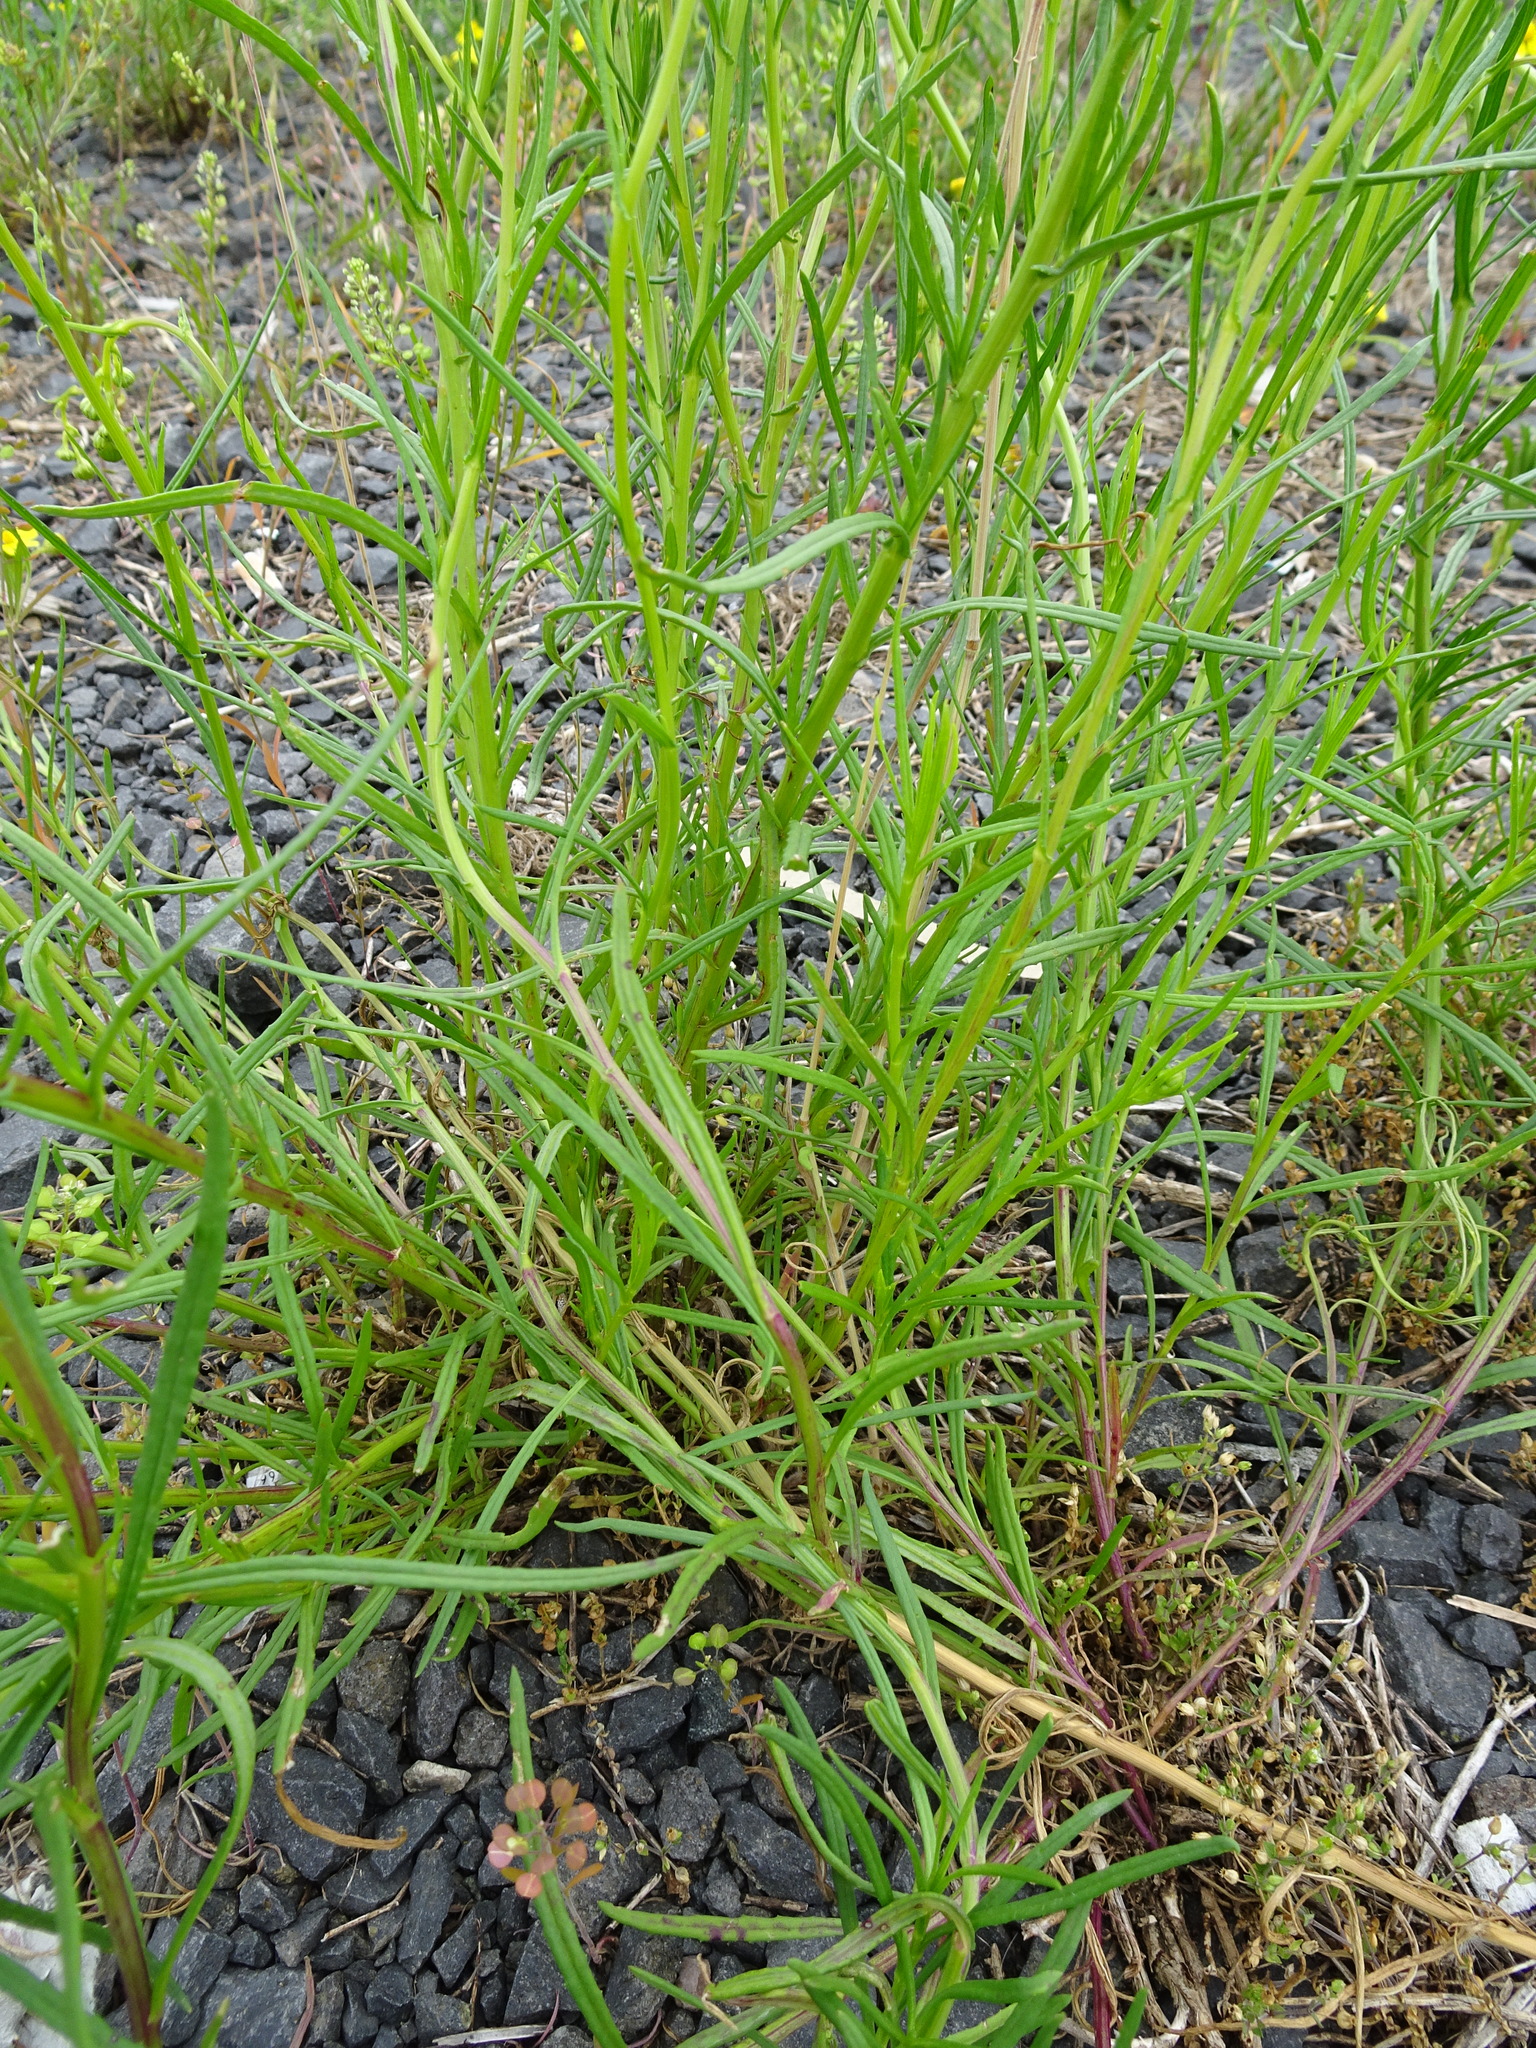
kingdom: Plantae
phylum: Tracheophyta
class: Magnoliopsida
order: Asterales
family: Asteraceae
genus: Senecio
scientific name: Senecio inaequidens
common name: Narrow-leaved ragwort
